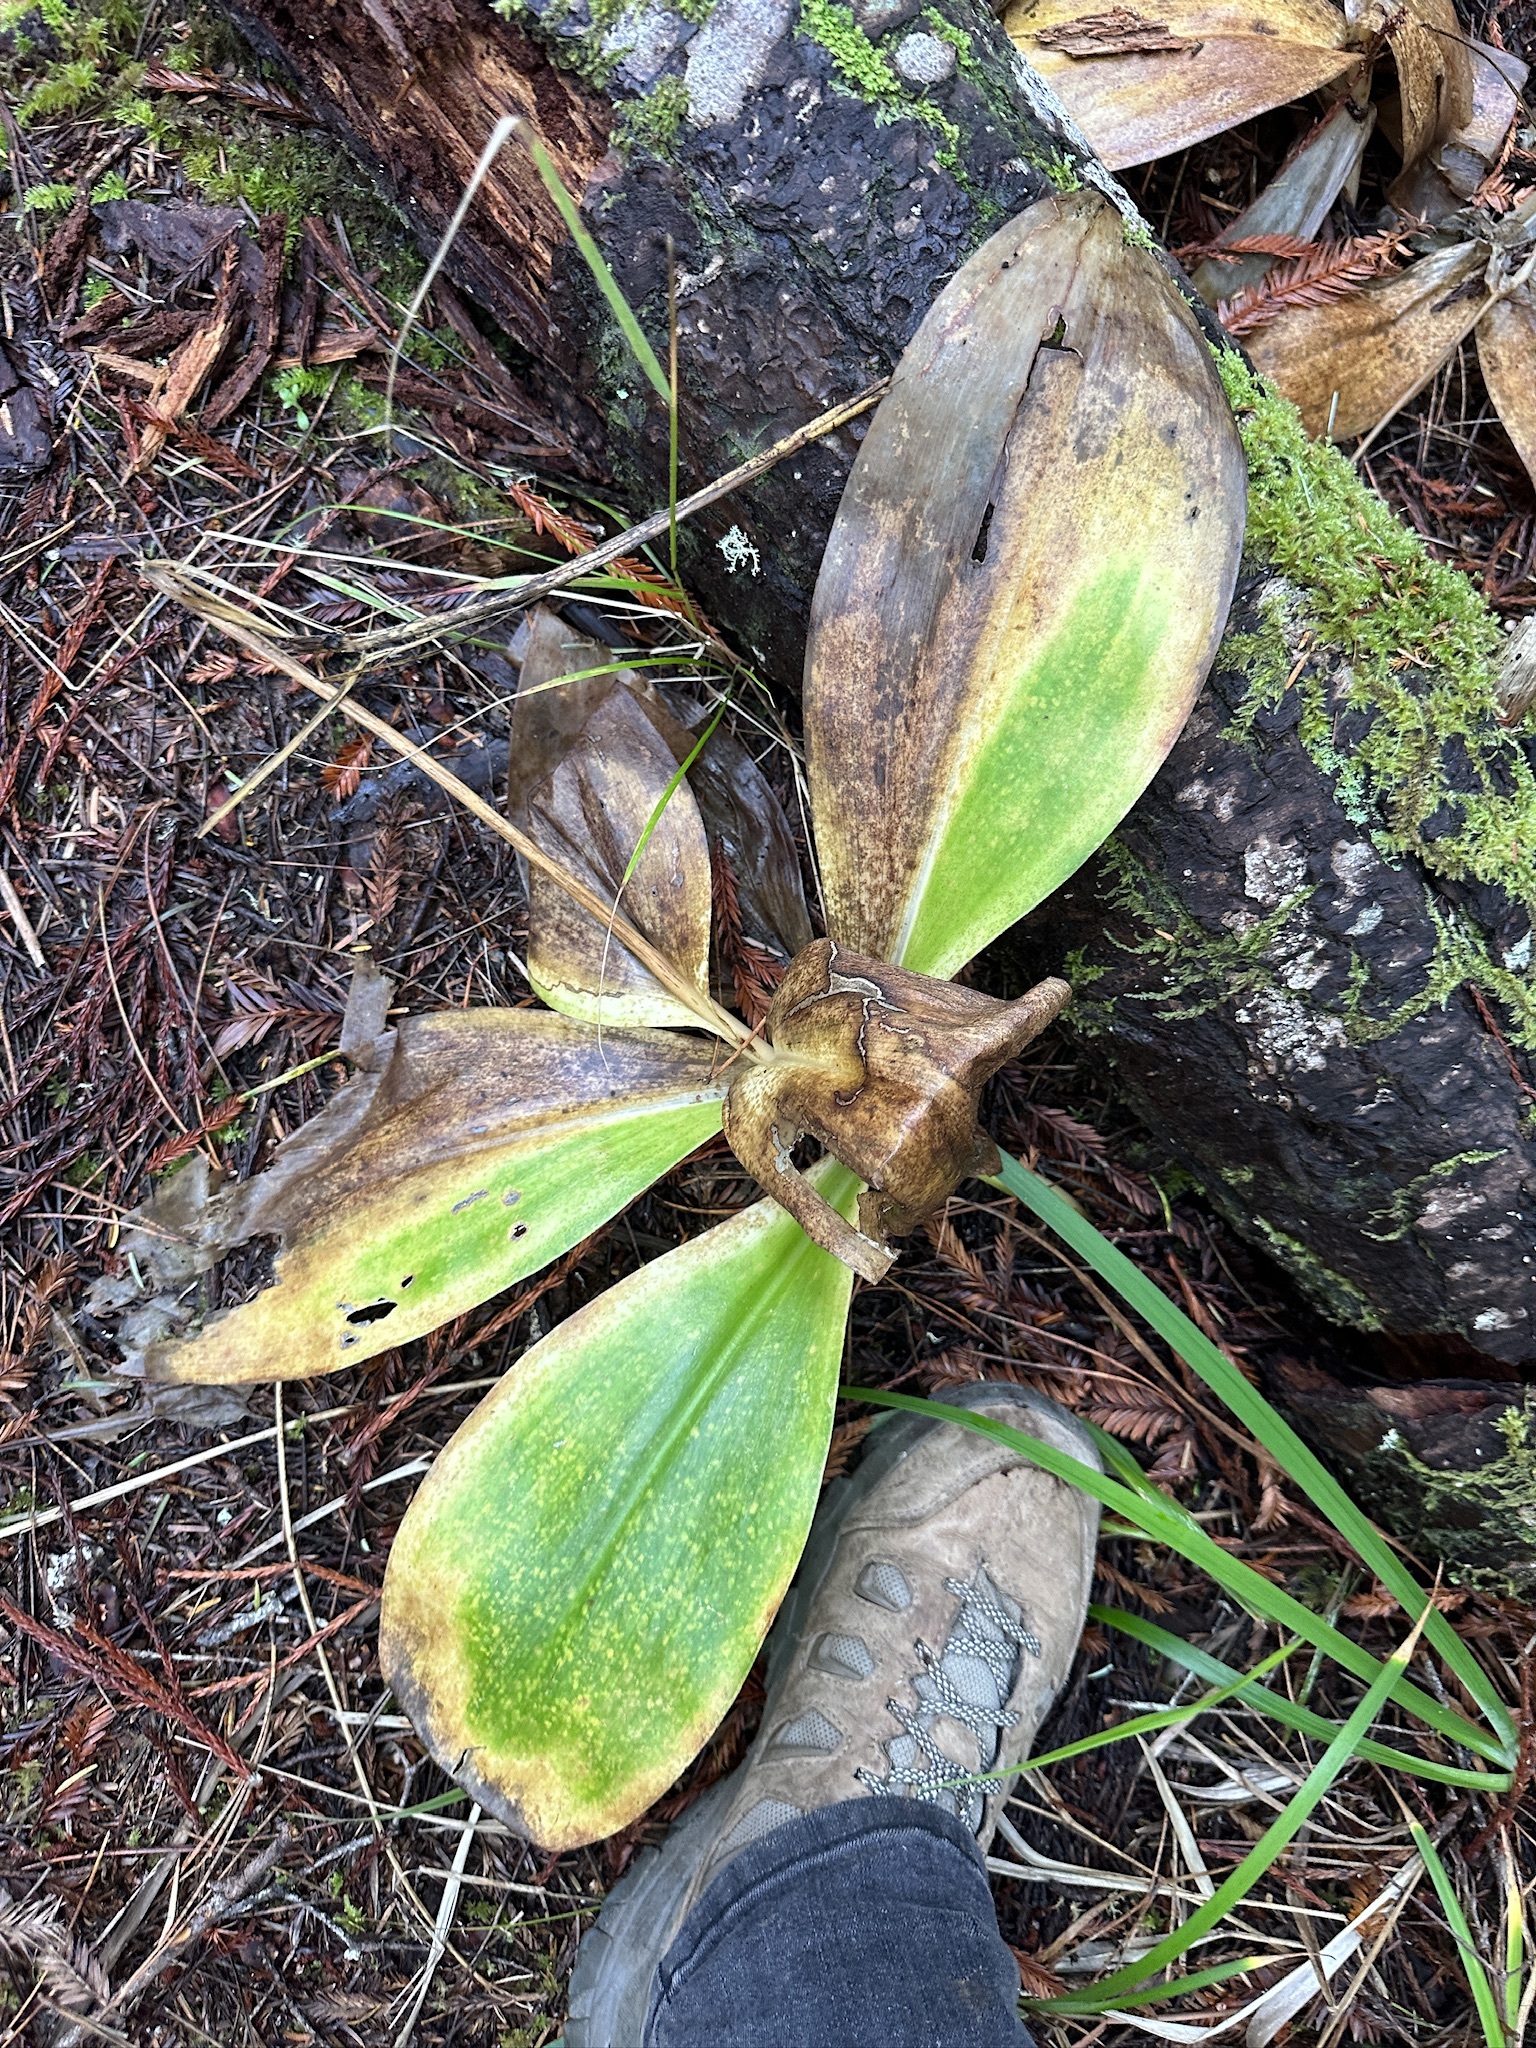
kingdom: Plantae
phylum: Tracheophyta
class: Liliopsida
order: Liliales
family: Liliaceae
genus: Clintonia
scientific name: Clintonia andrewsiana
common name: Red clintonia
